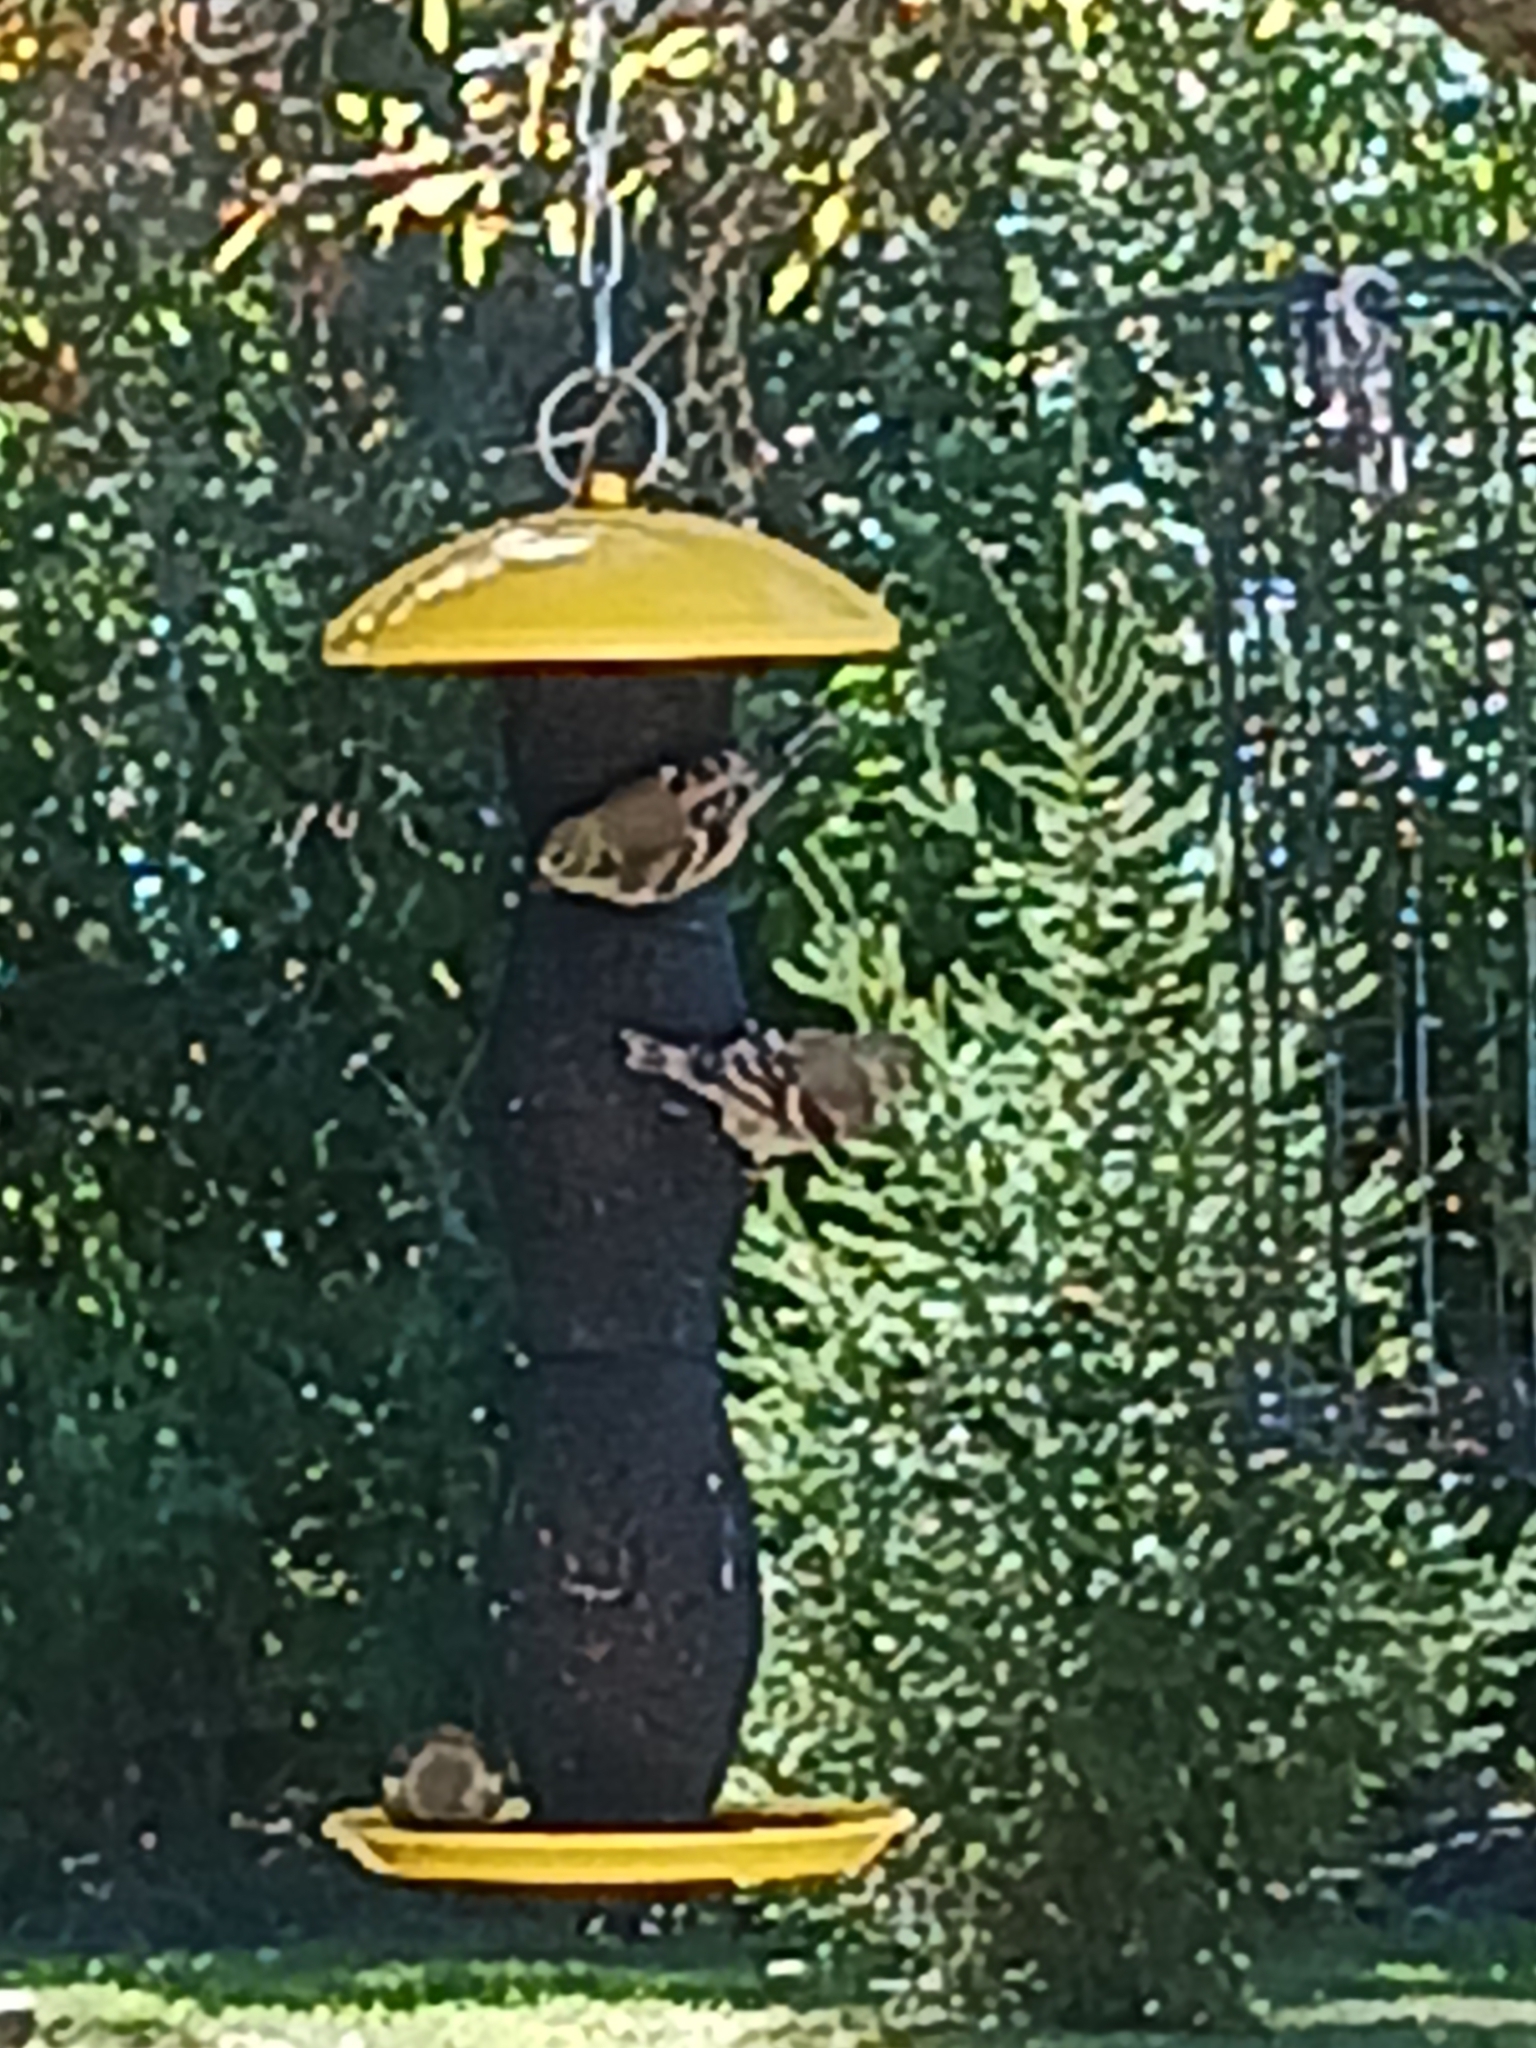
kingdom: Animalia
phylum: Chordata
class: Aves
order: Passeriformes
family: Fringillidae
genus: Spinus
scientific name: Spinus tristis
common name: American goldfinch
